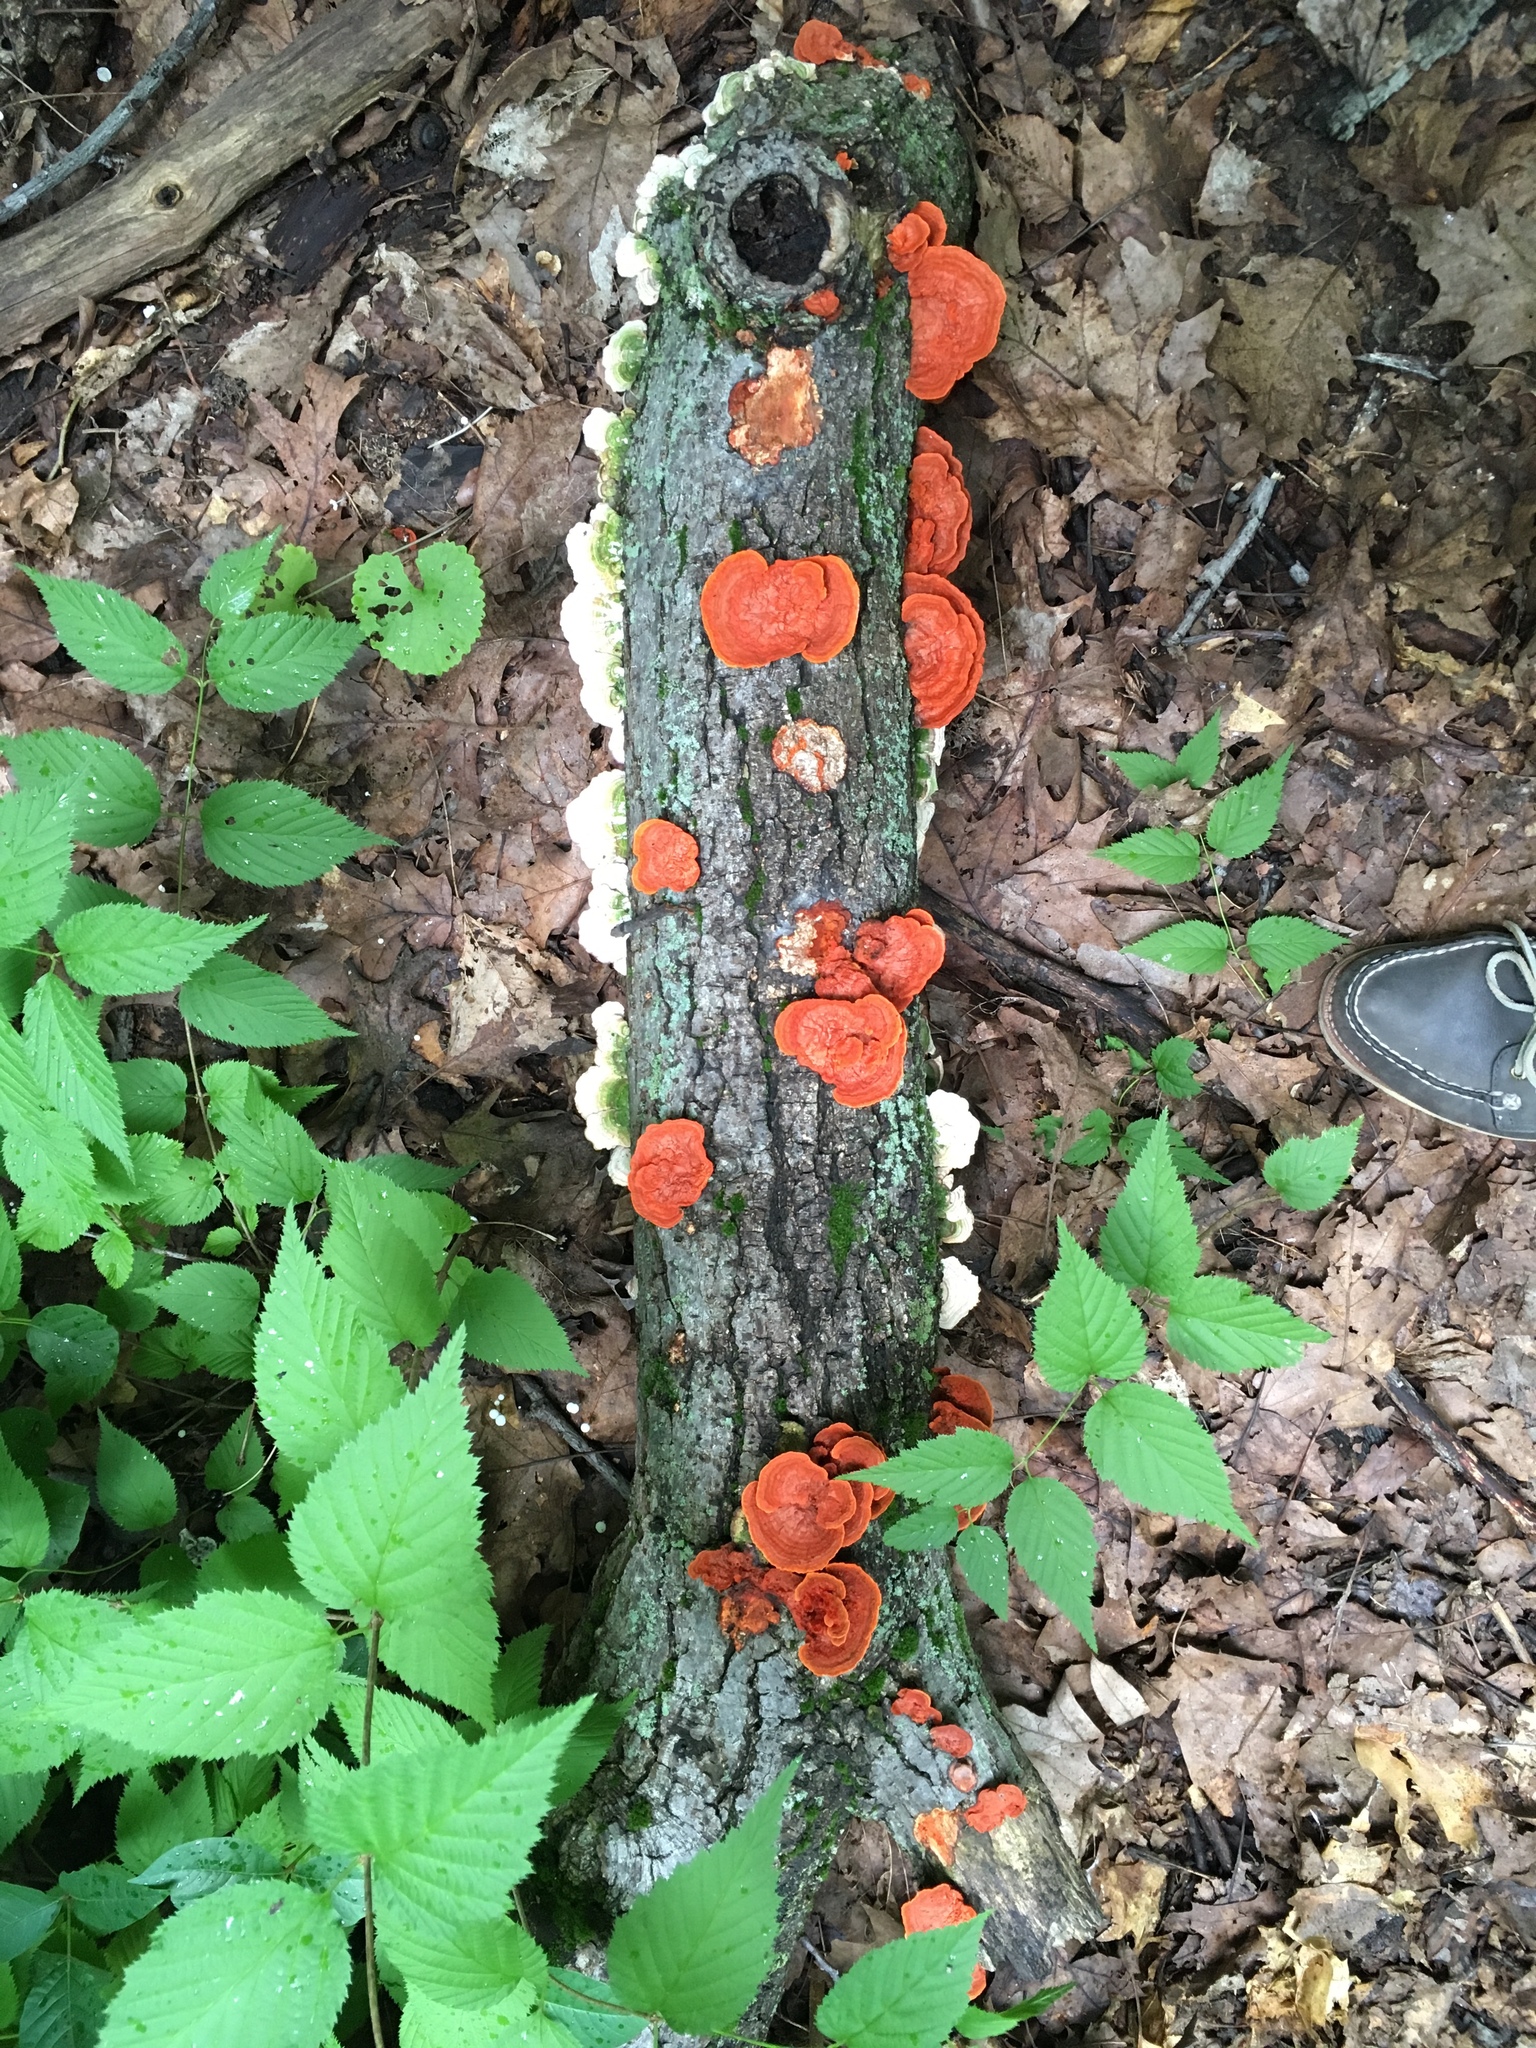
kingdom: Fungi
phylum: Basidiomycota
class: Agaricomycetes
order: Polyporales
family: Polyporaceae
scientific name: Polyporaceae
